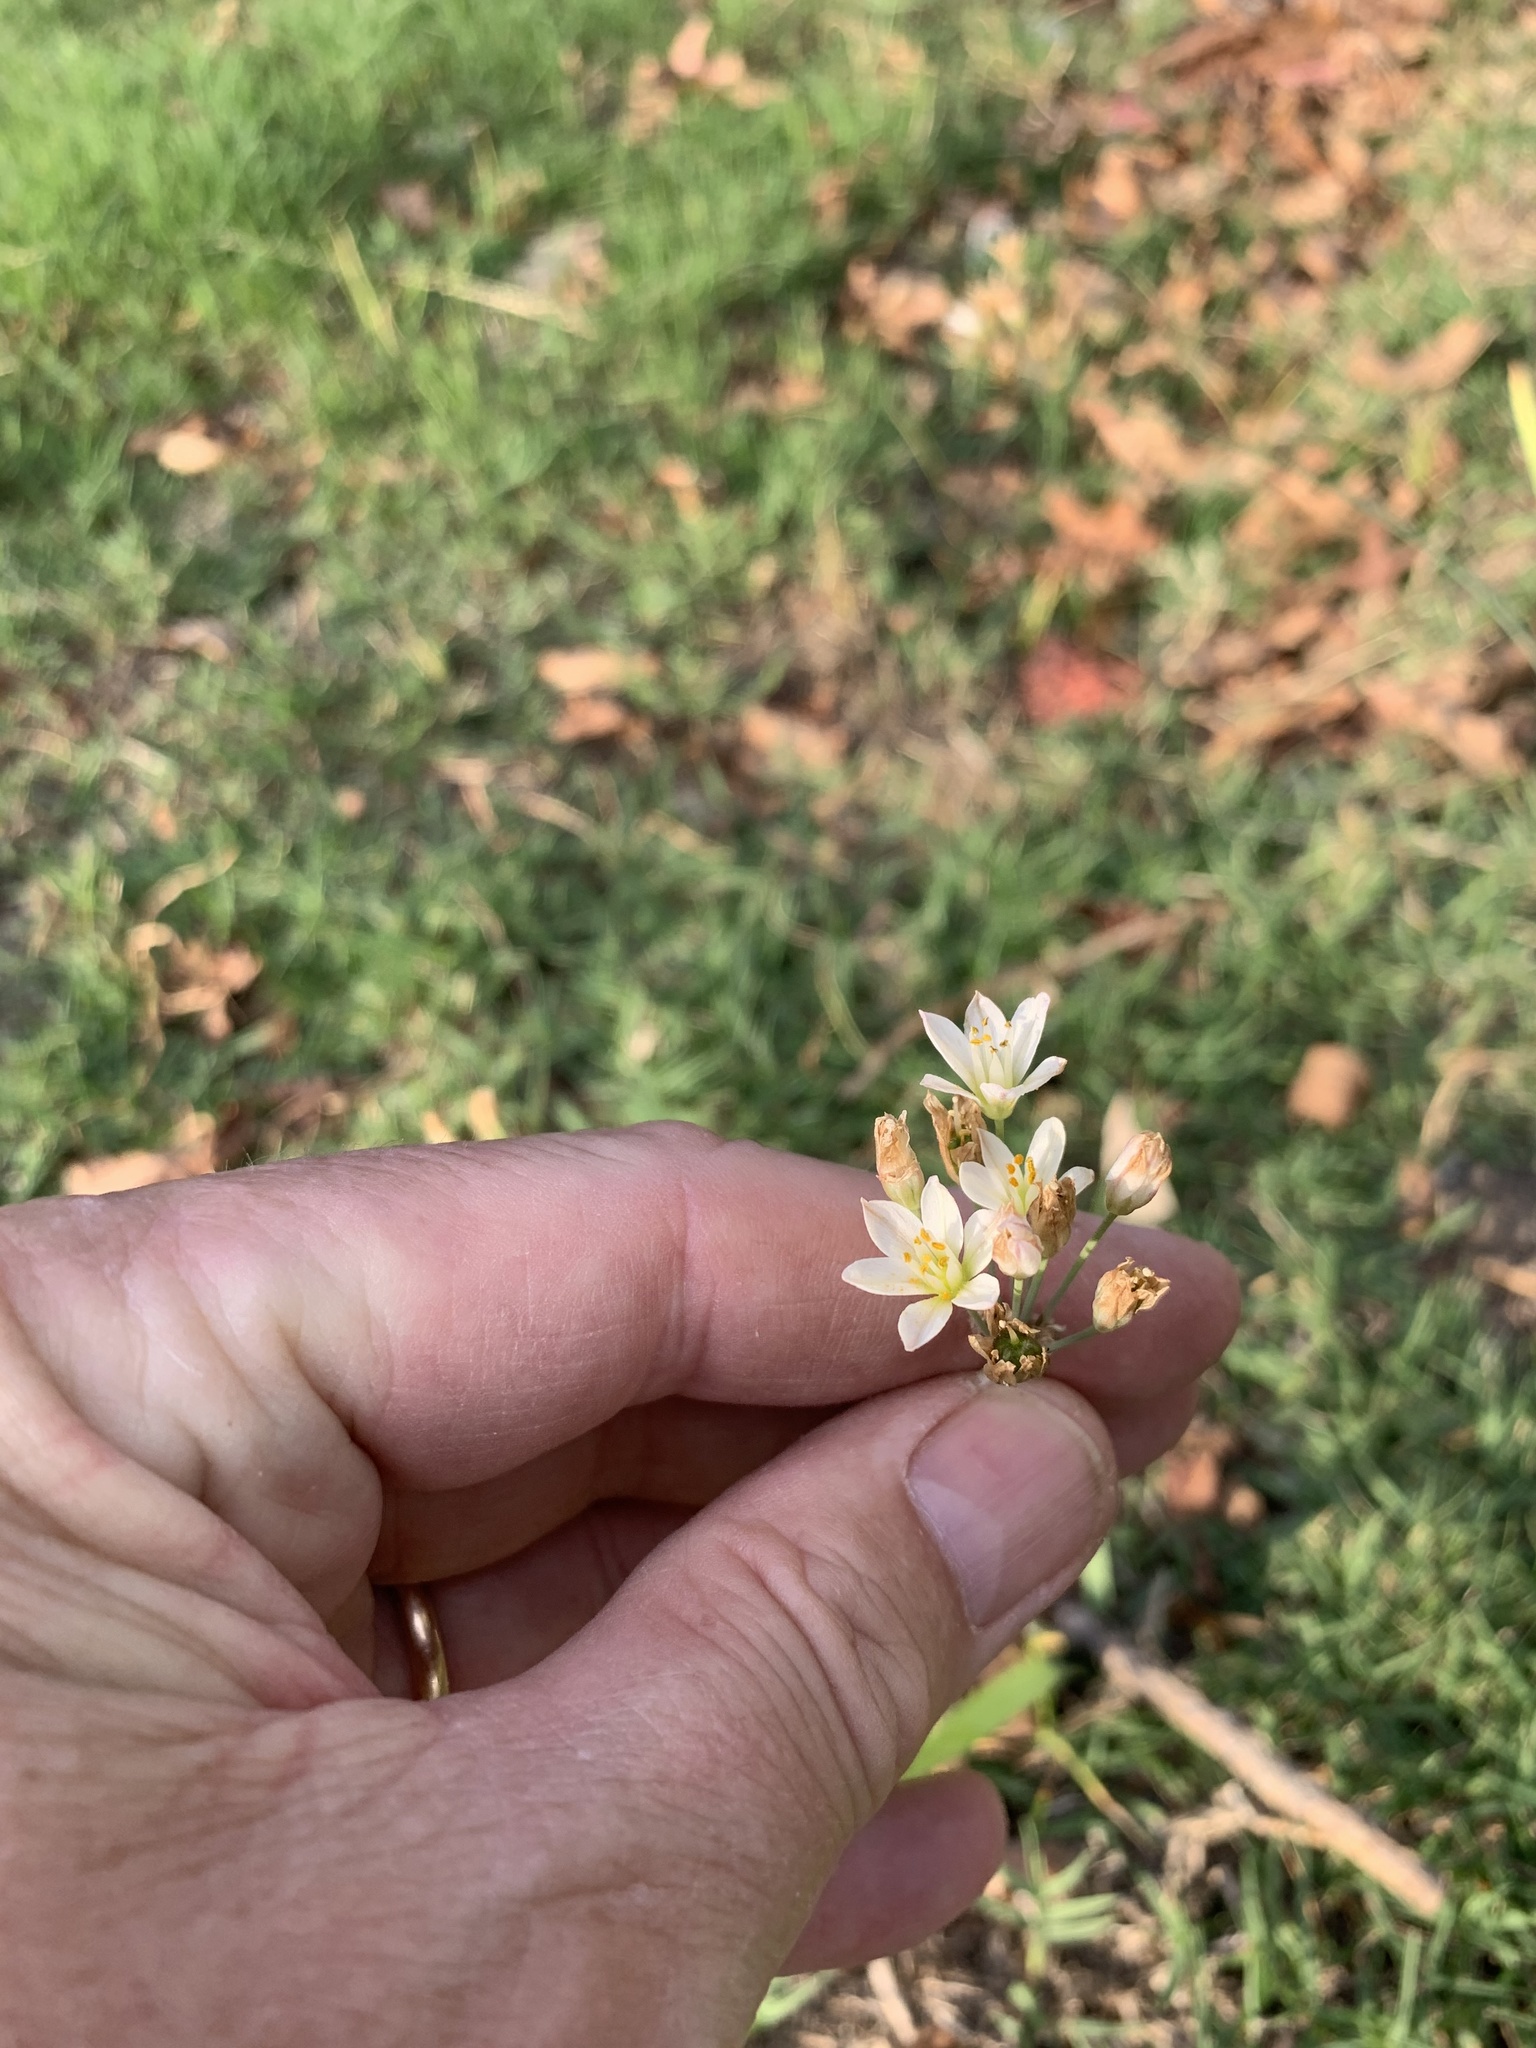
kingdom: Plantae
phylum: Tracheophyta
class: Liliopsida
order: Asparagales
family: Amaryllidaceae
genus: Nothoscordum
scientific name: Nothoscordum gracile
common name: Slender false garlic
